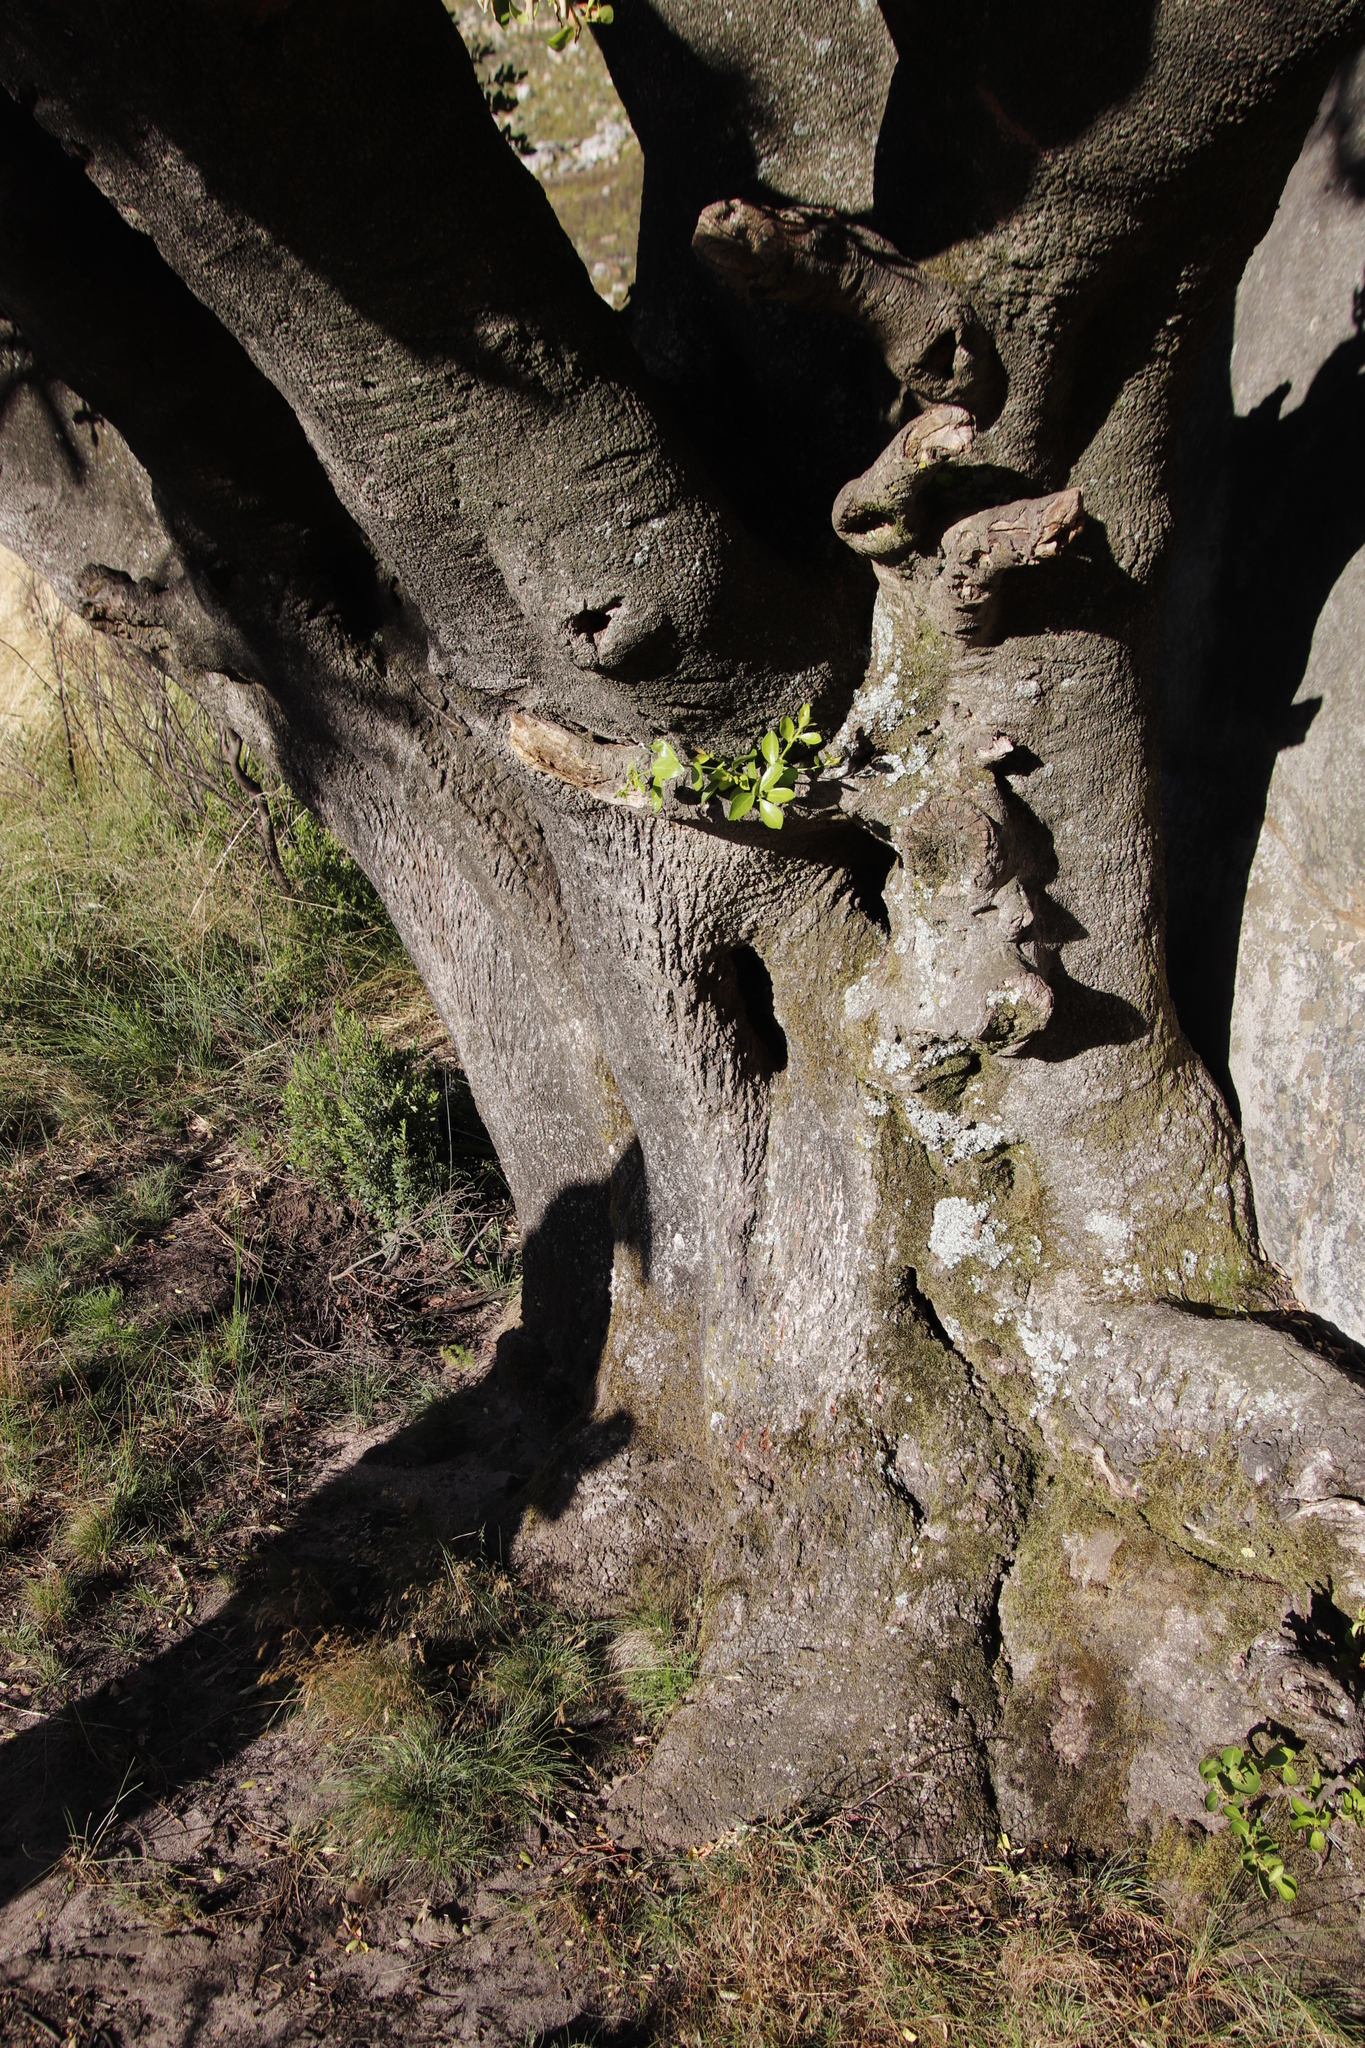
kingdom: Animalia
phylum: Chordata
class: Mammalia
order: Carnivora
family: Felidae
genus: Panthera
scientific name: Panthera pardus
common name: Leopard
